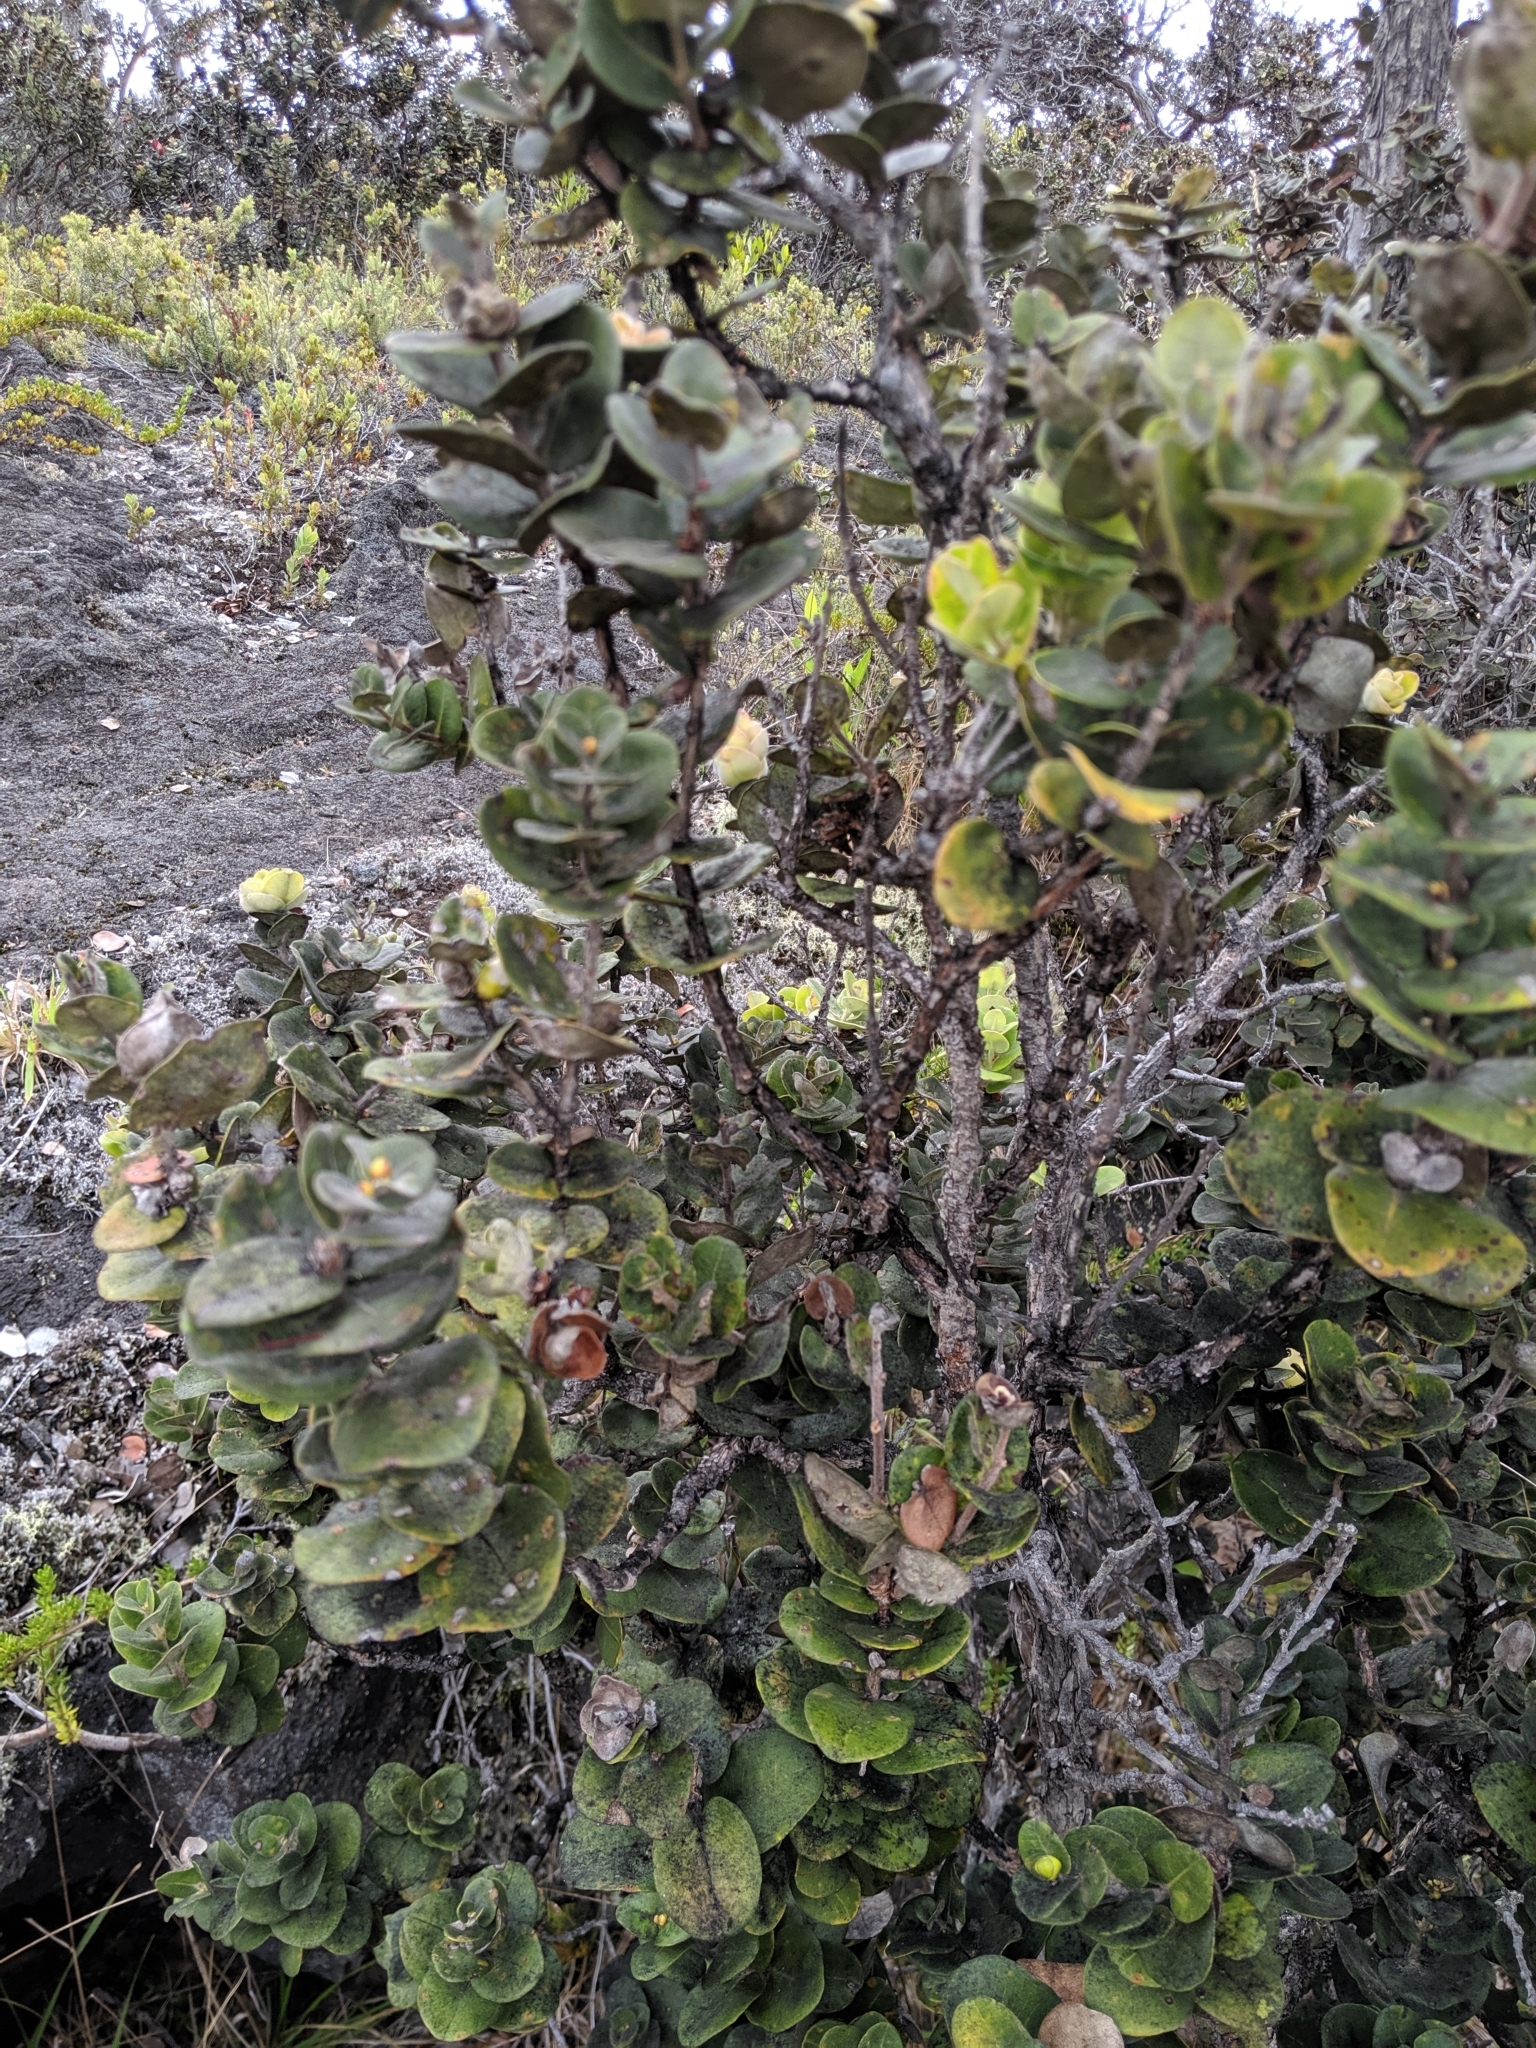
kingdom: Plantae
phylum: Tracheophyta
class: Magnoliopsida
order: Myrtales
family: Myrtaceae
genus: Metrosideros
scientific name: Metrosideros polymorpha
